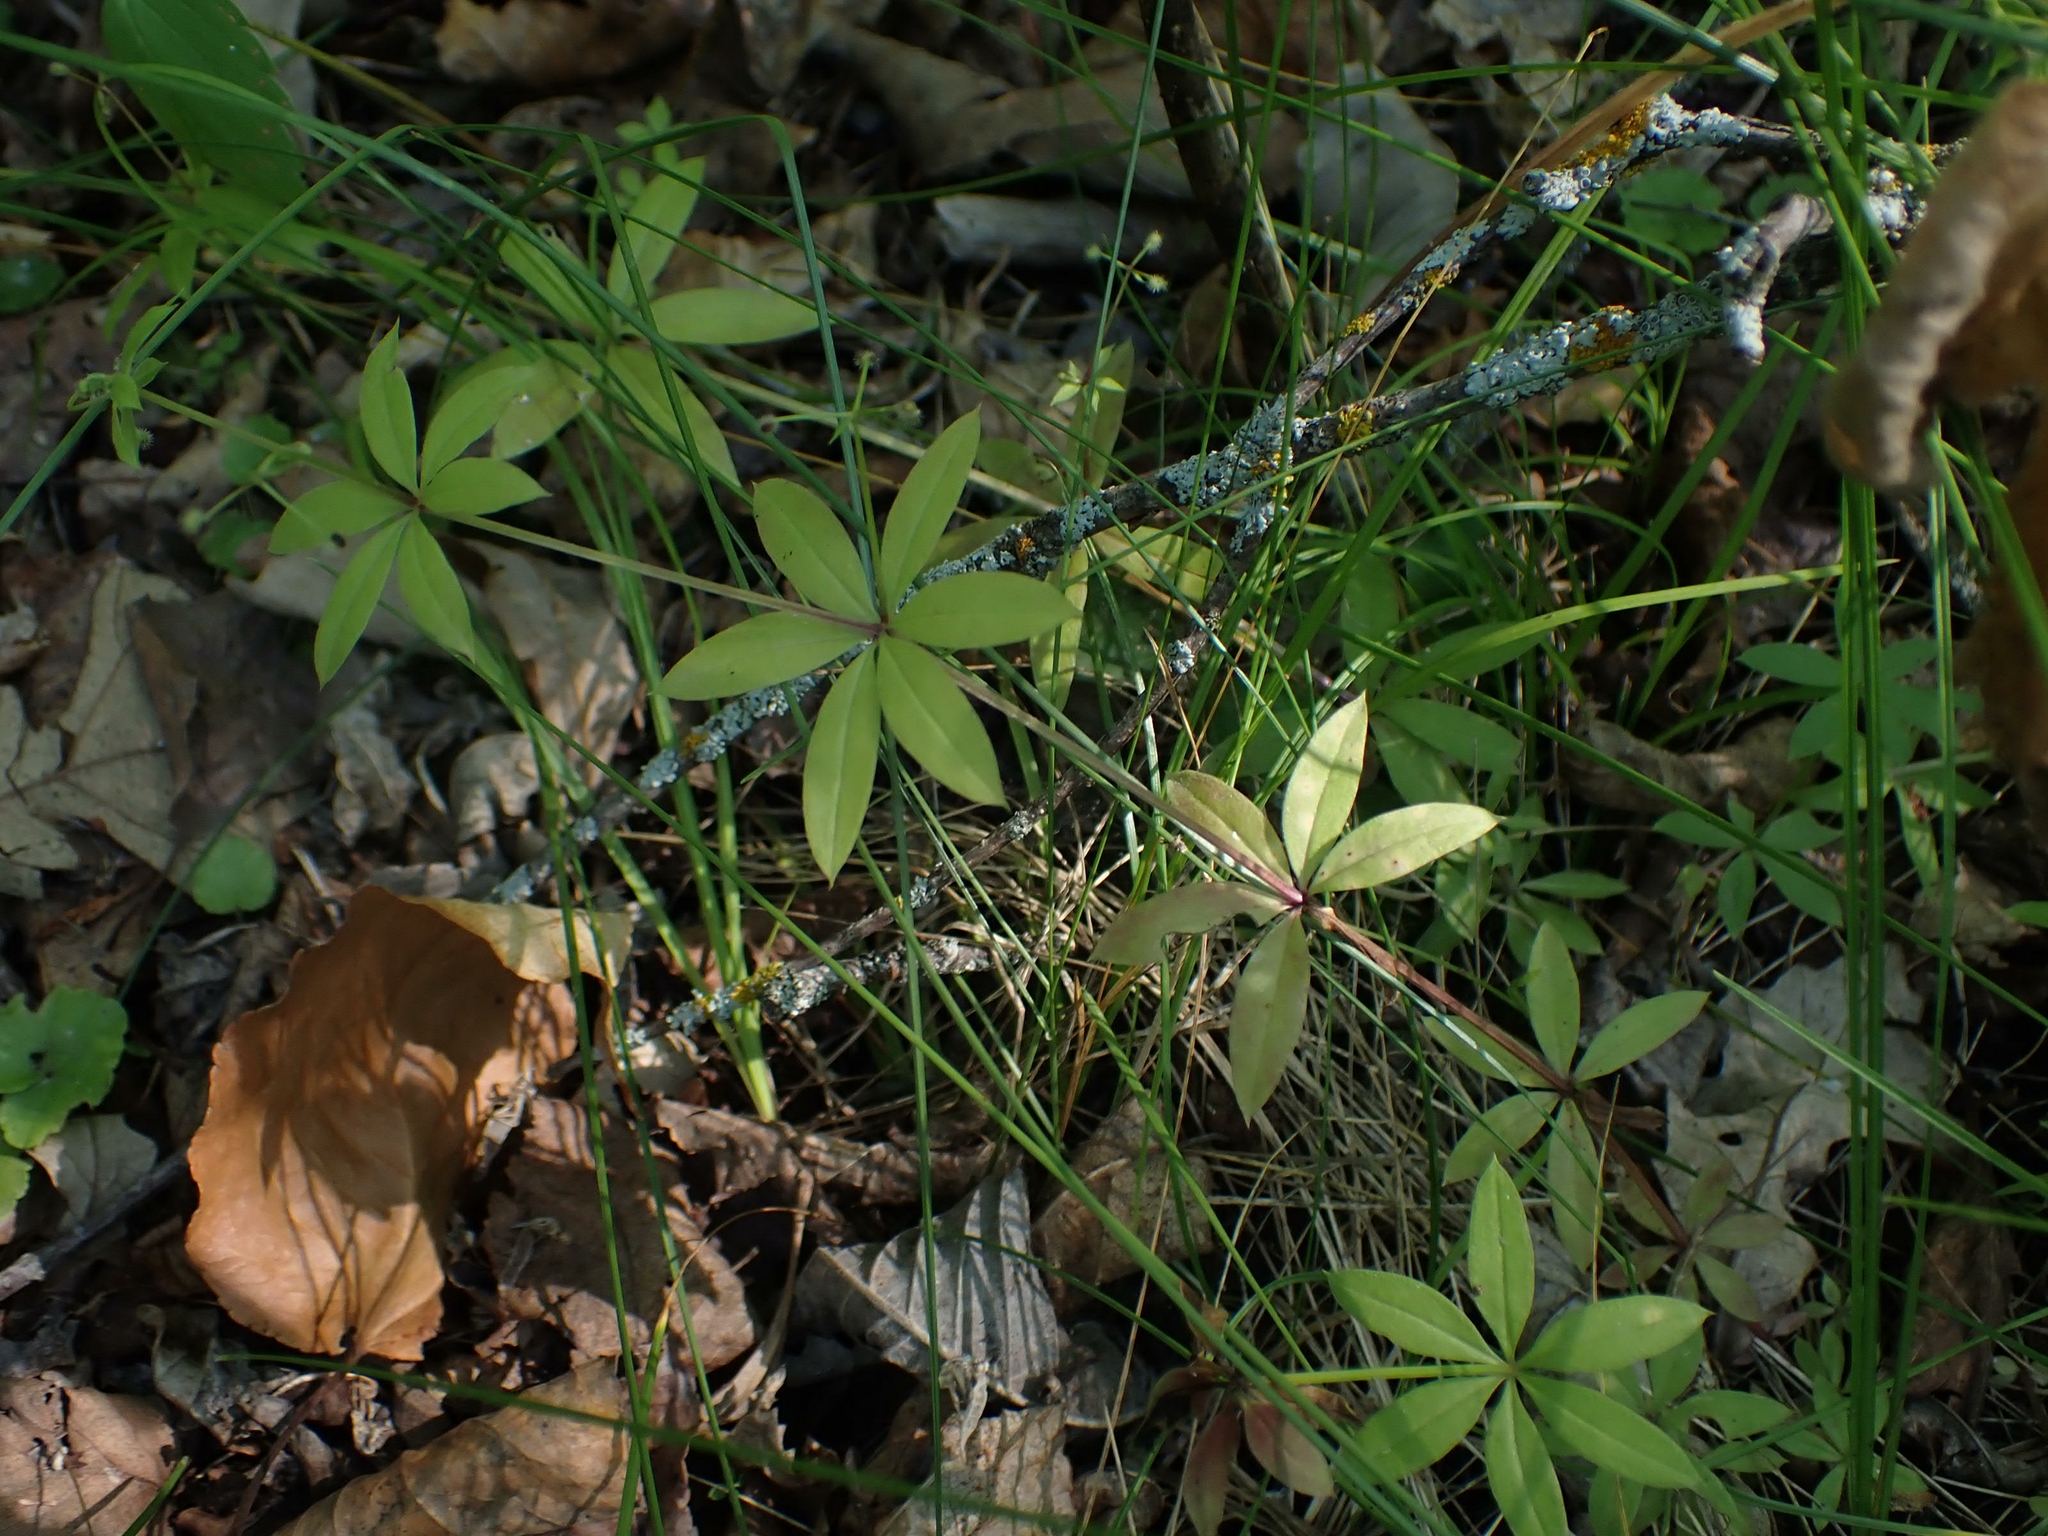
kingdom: Plantae
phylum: Tracheophyta
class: Magnoliopsida
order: Gentianales
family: Rubiaceae
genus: Galium
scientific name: Galium triflorum
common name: Fragrant bedstraw
